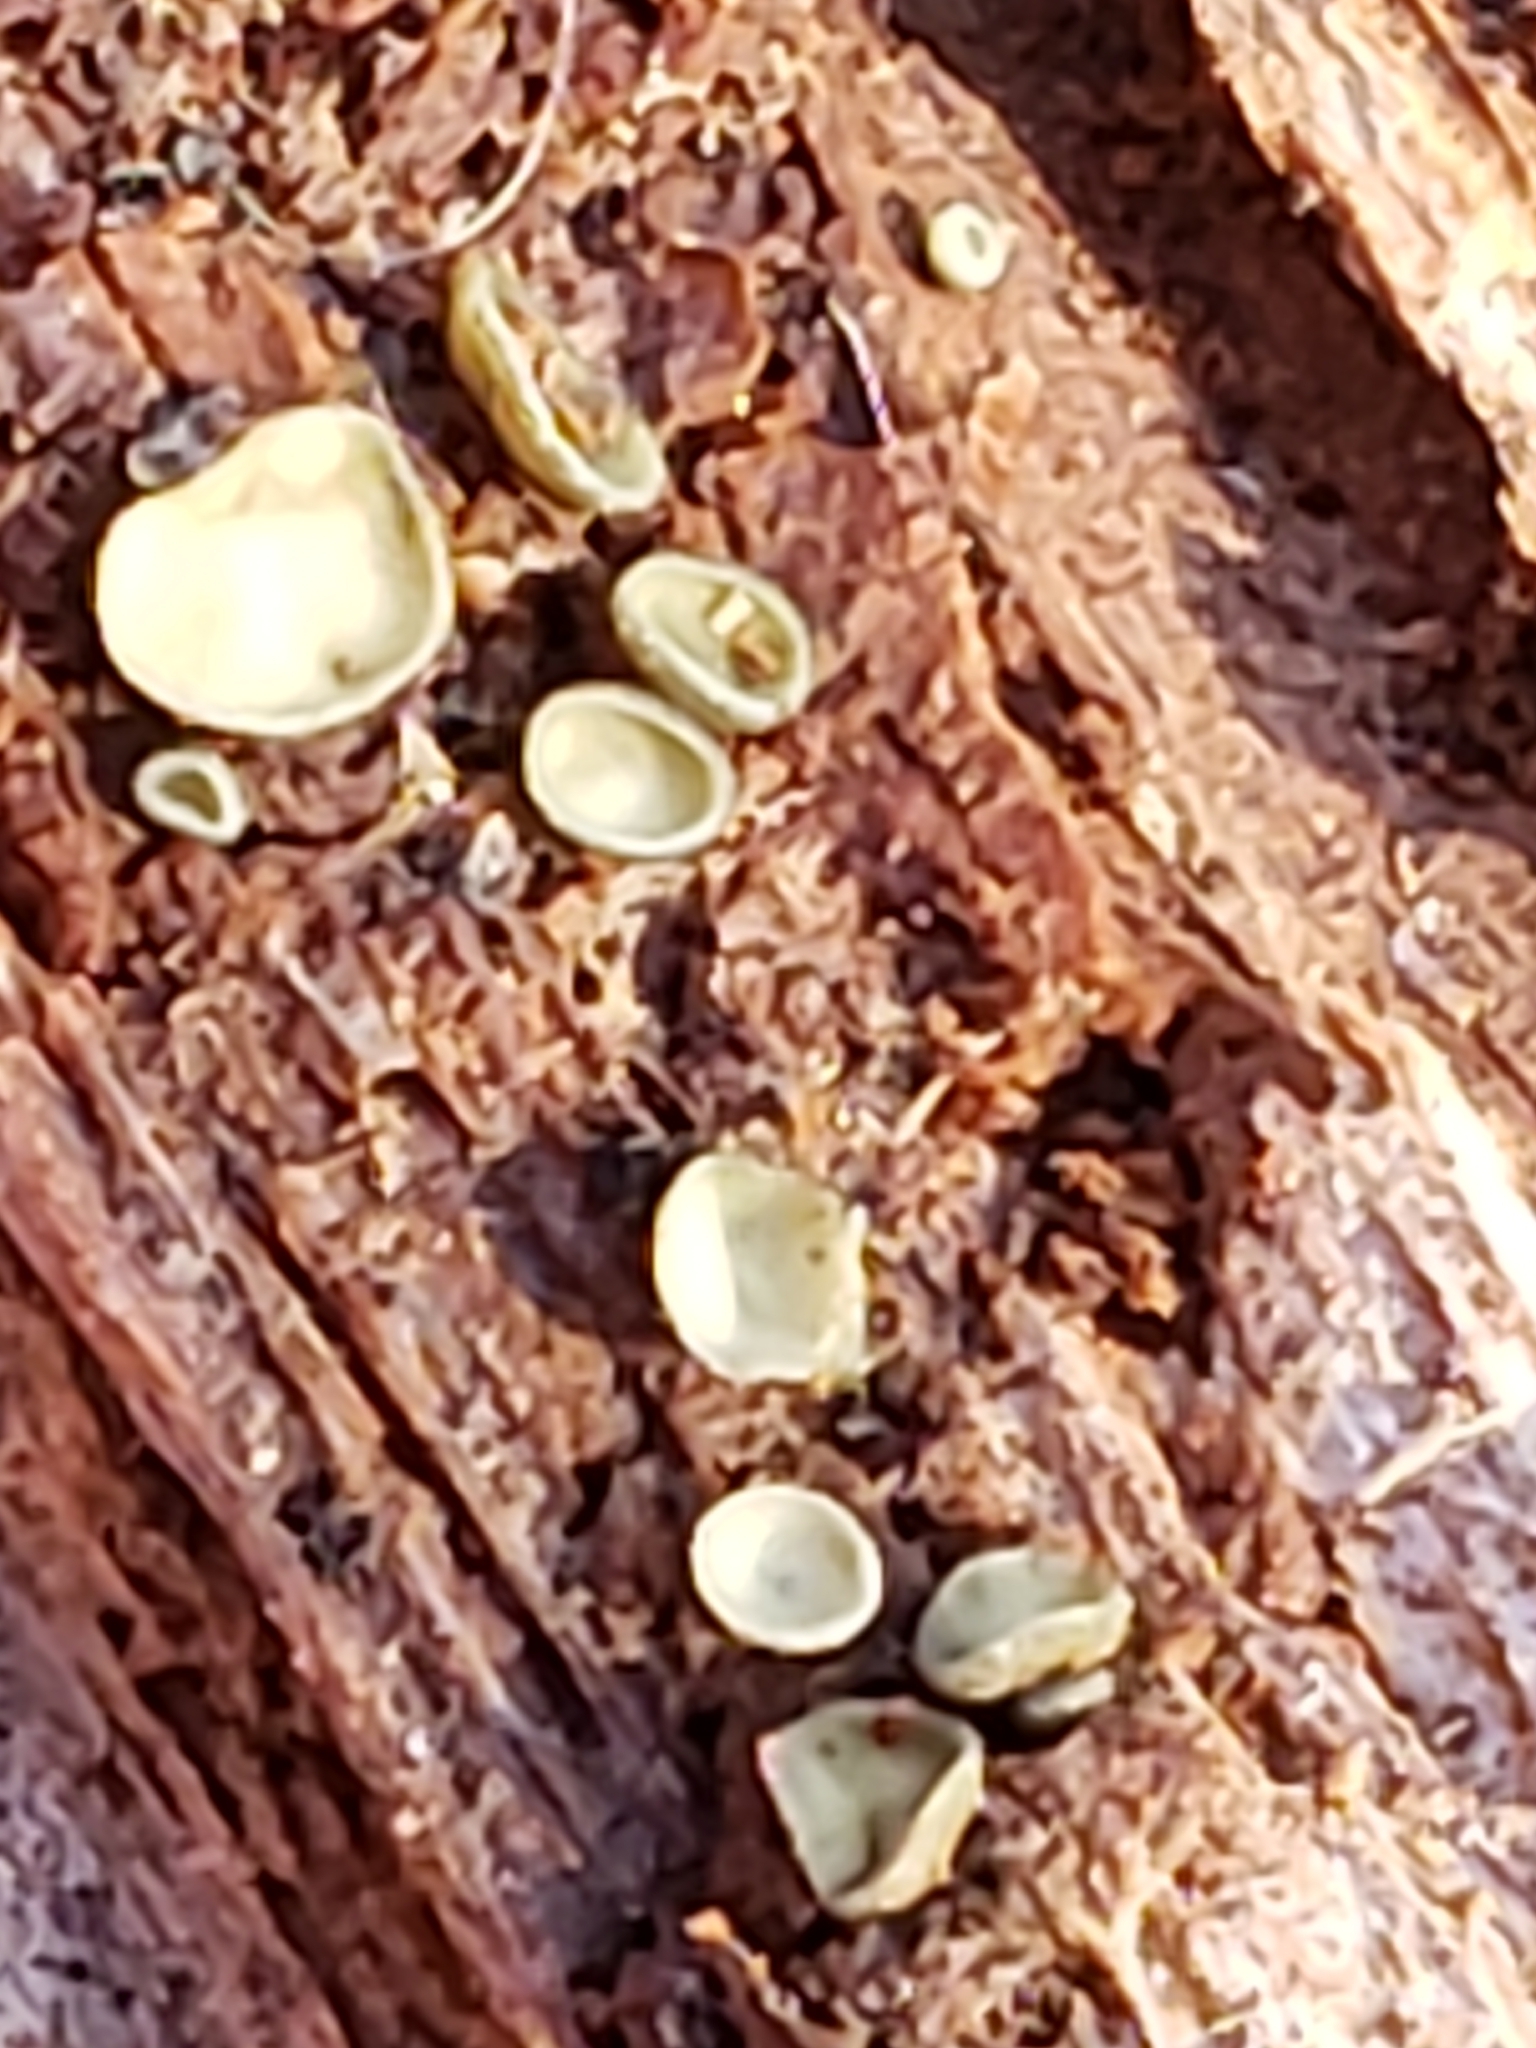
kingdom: Fungi
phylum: Ascomycota
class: Leotiomycetes
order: Helotiales
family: Chlorospleniaceae
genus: Chlorosplenium
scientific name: Chlorosplenium chlora
